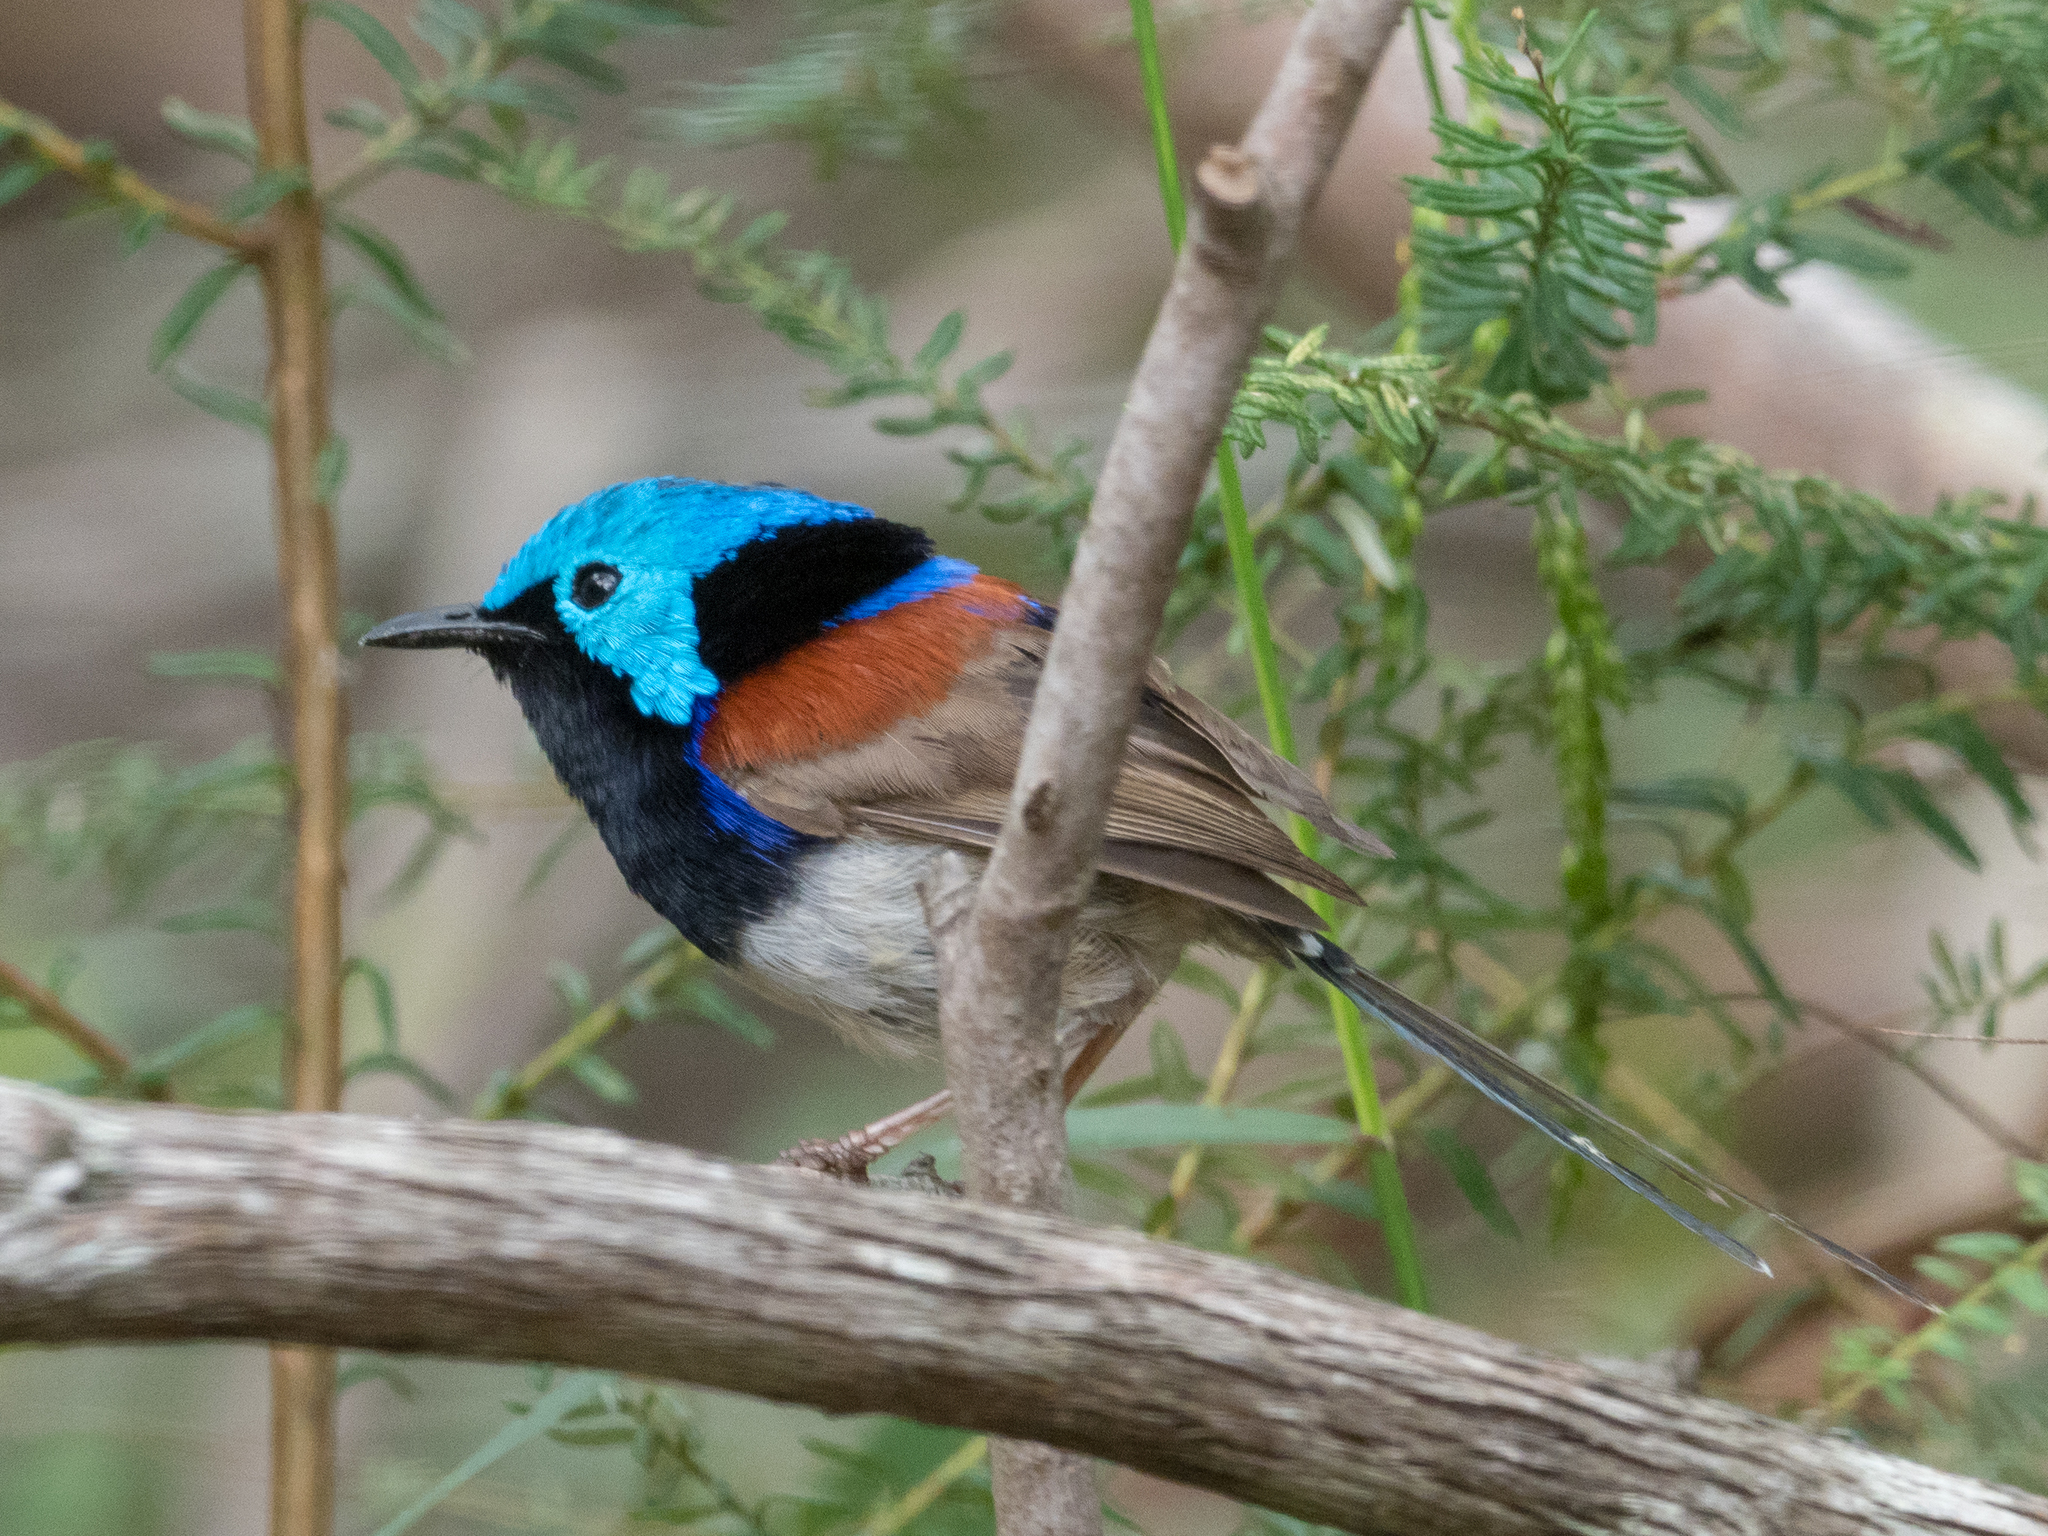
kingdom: Animalia
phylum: Chordata
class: Aves
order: Passeriformes
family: Maluridae
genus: Malurus
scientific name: Malurus lamberti
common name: Variegated fairywren
